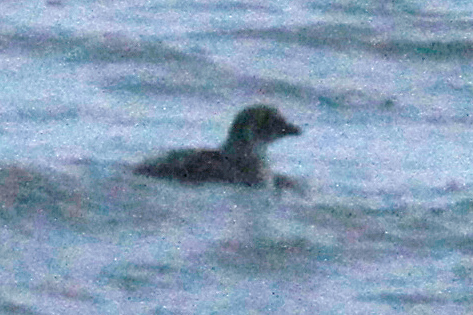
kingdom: Animalia
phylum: Chordata
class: Aves
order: Charadriiformes
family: Alcidae
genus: Ptychoramphus
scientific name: Ptychoramphus aleuticus
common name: Cassin's auklet
